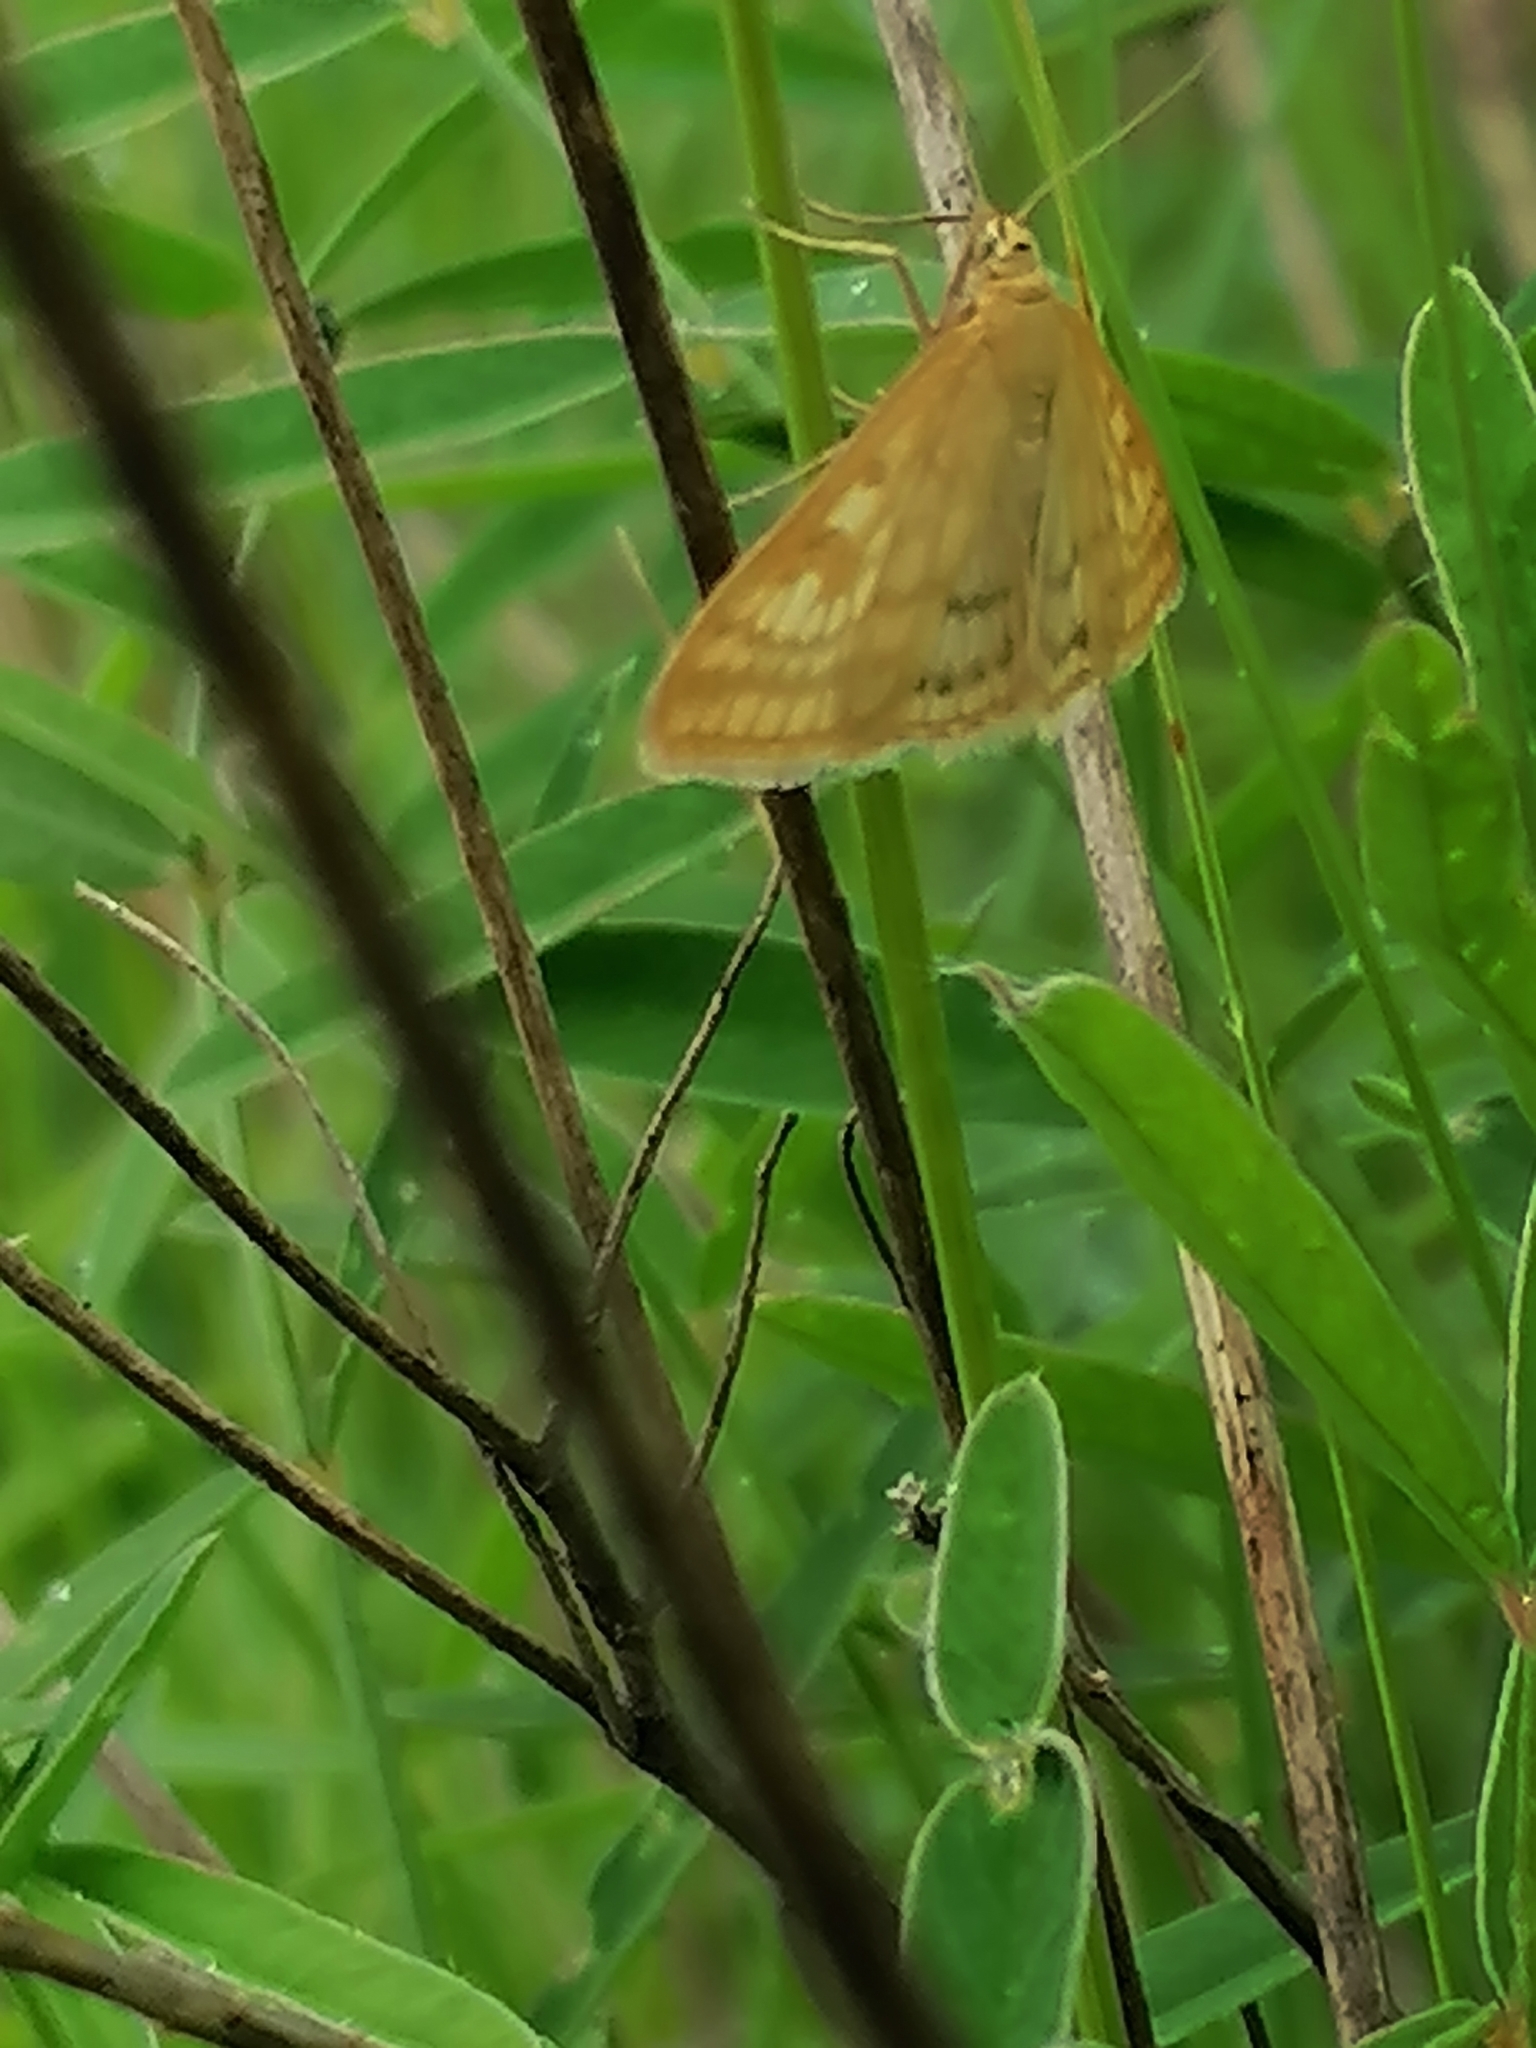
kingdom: Animalia
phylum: Arthropoda
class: Insecta
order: Lepidoptera
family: Crambidae
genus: Sitochroa
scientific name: Sitochroa verticalis
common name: Lesser pearl
